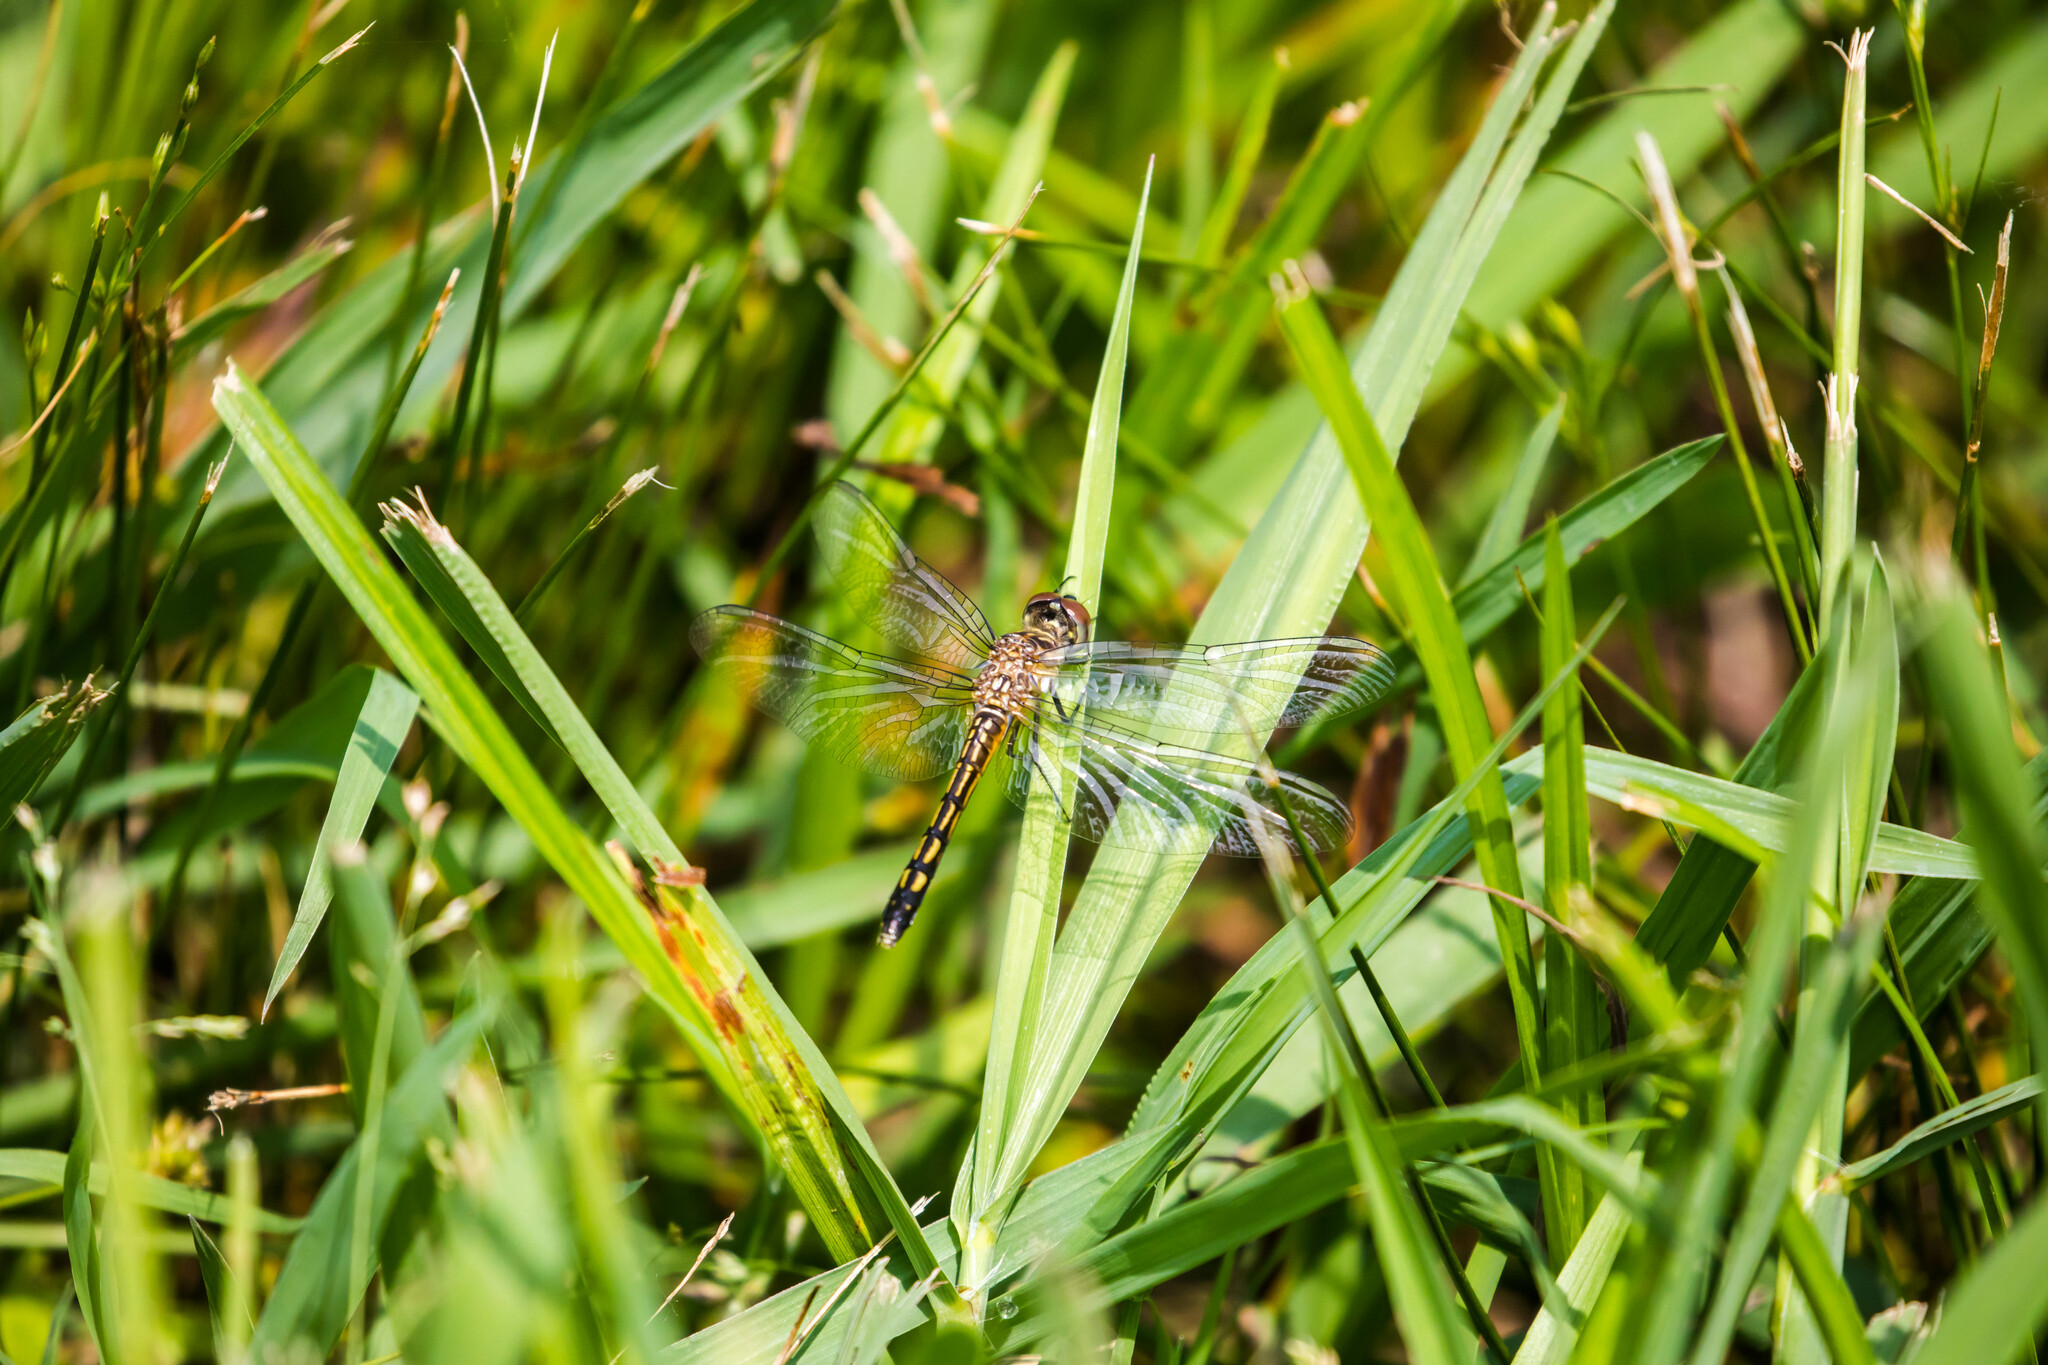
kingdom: Animalia
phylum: Arthropoda
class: Insecta
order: Odonata
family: Libellulidae
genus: Pachydiplax
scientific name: Pachydiplax longipennis
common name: Blue dasher
